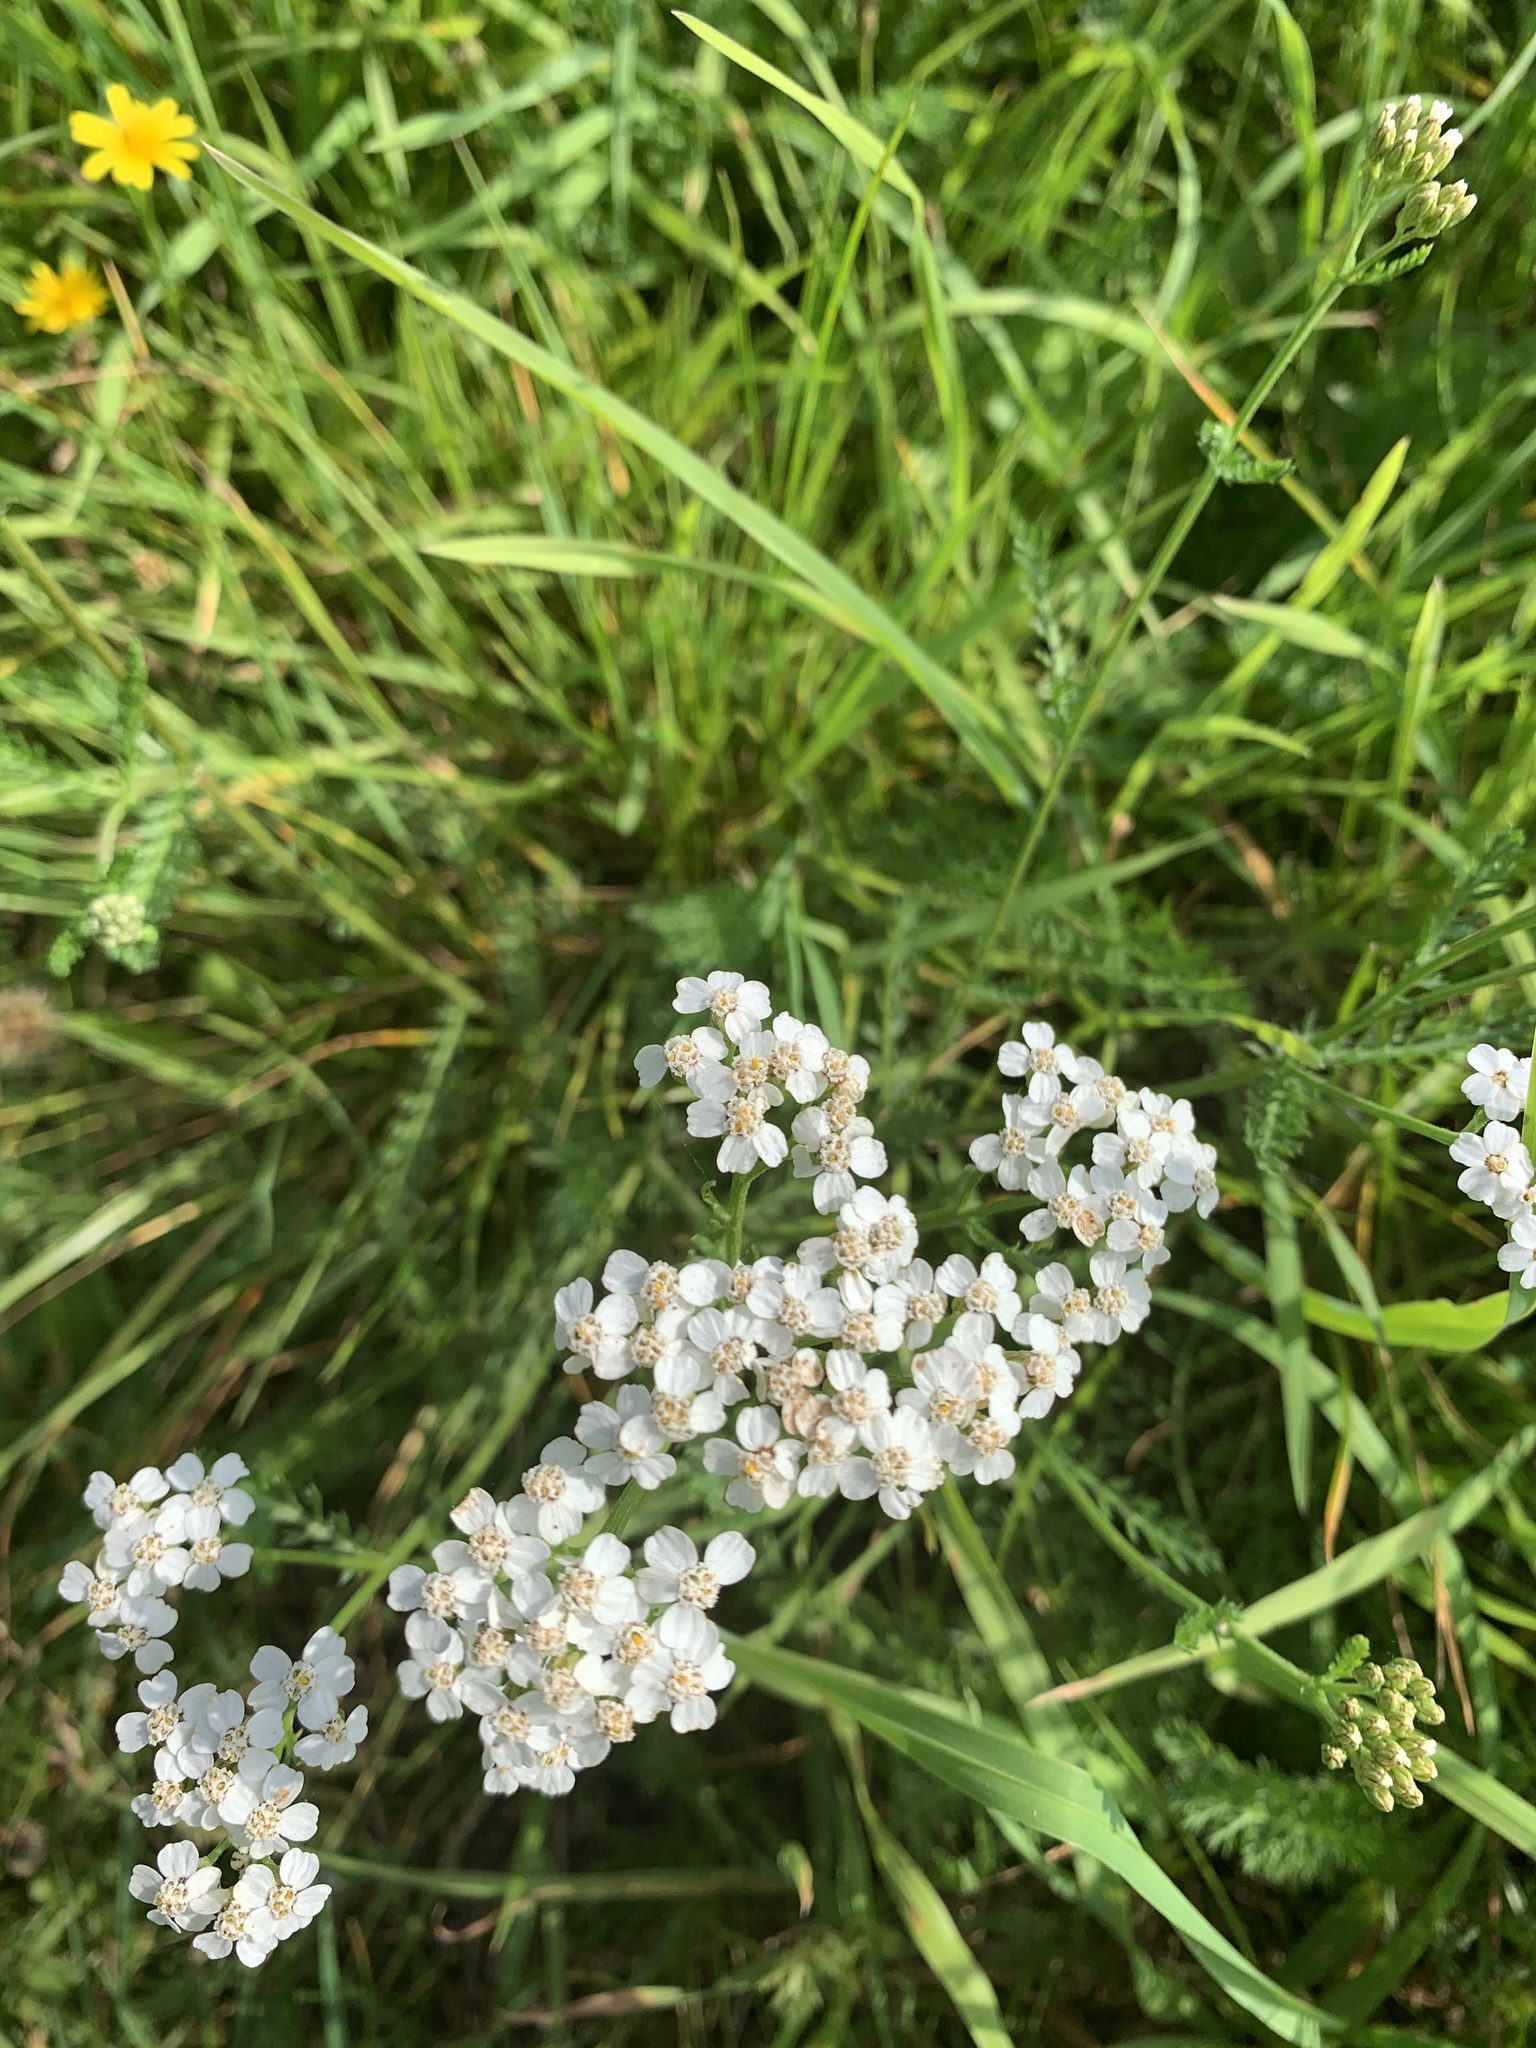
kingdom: Plantae
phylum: Tracheophyta
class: Magnoliopsida
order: Asterales
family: Asteraceae
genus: Achillea
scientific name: Achillea millefolium
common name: Yarrow
